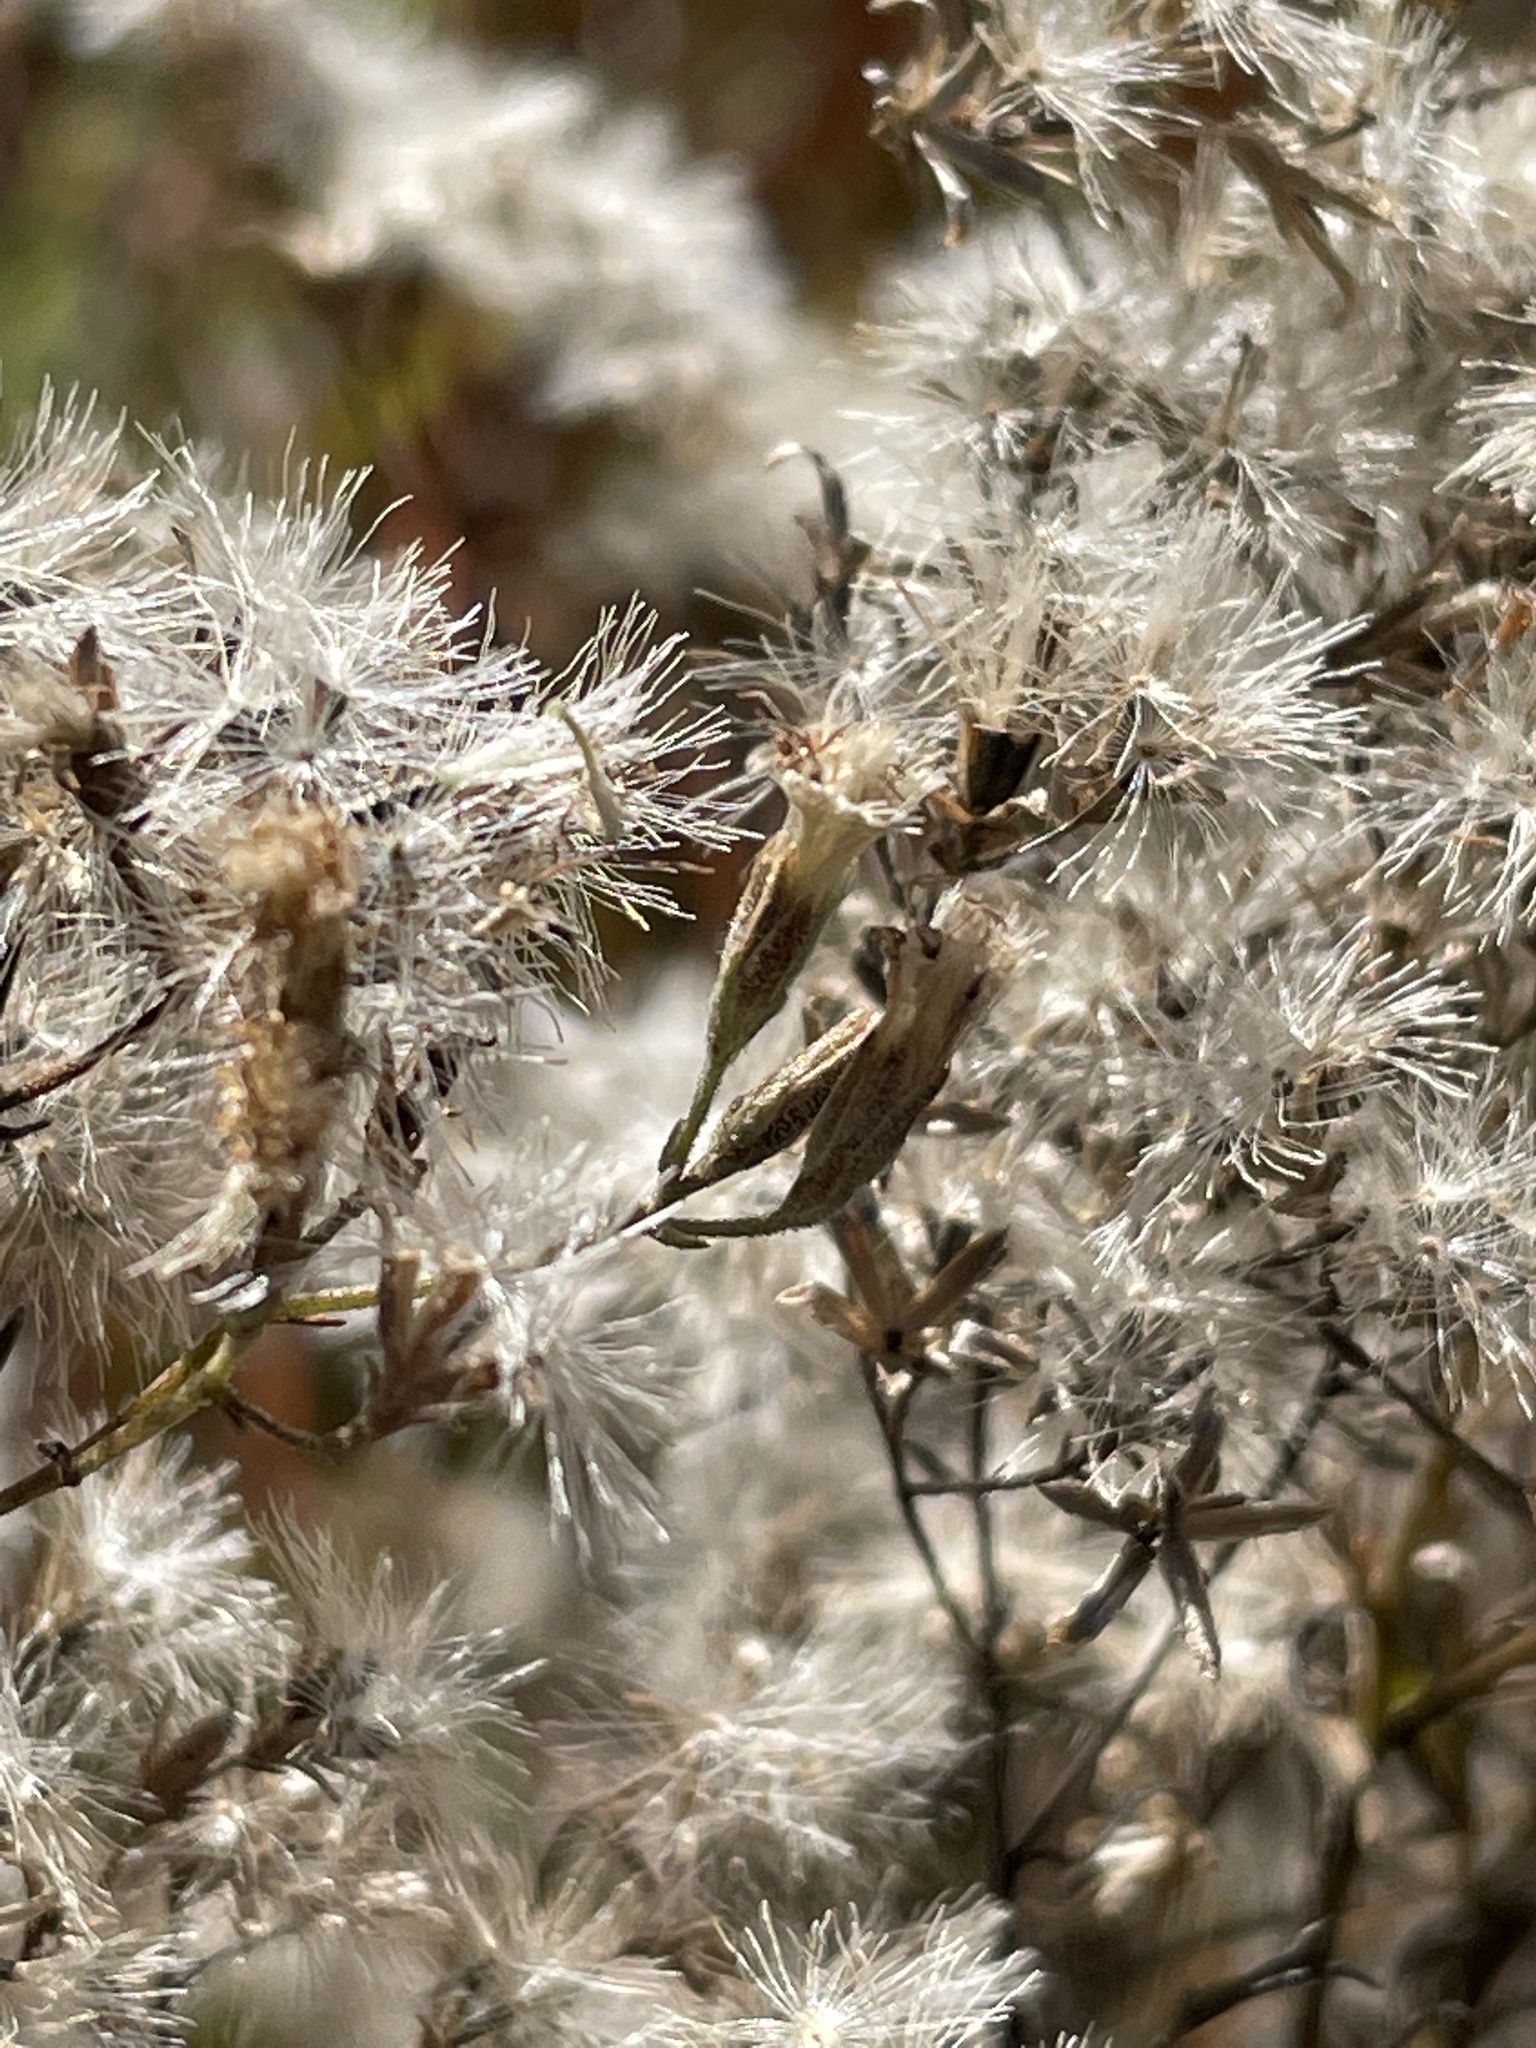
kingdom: Plantae
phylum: Tracheophyta
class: Magnoliopsida
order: Asterales
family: Asteraceae
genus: Eupatorium
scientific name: Eupatorium hyssopifolium
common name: Hyssop-leaf thoroughwort
